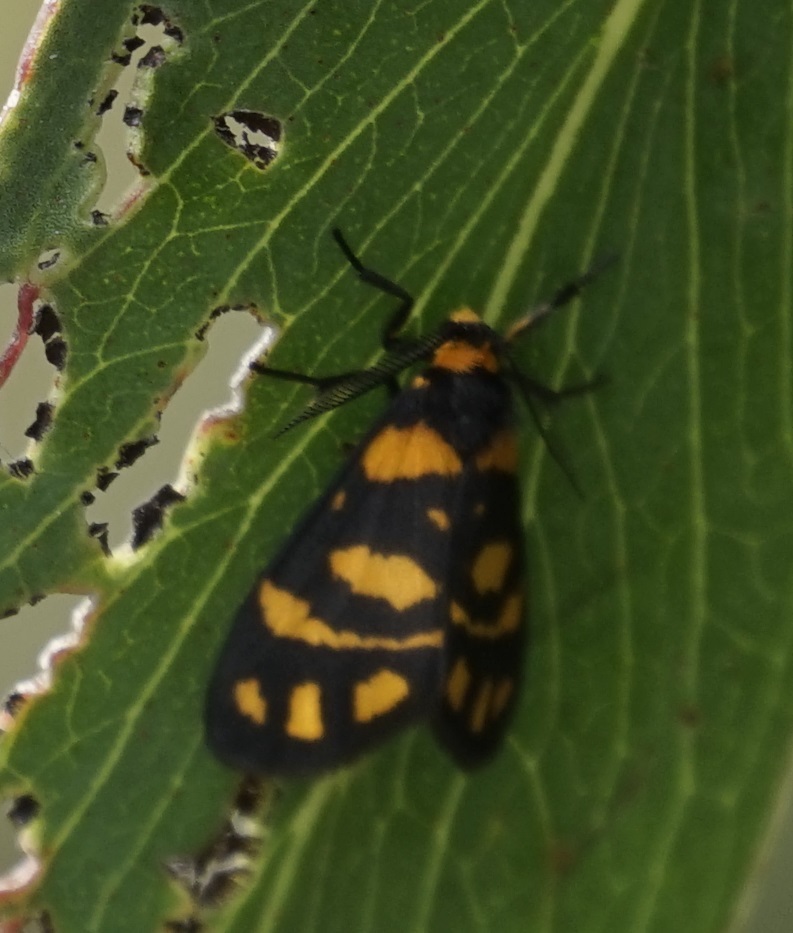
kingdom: Animalia
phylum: Arthropoda
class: Insecta
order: Lepidoptera
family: Erebidae
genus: Asura
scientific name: Asura lydia
